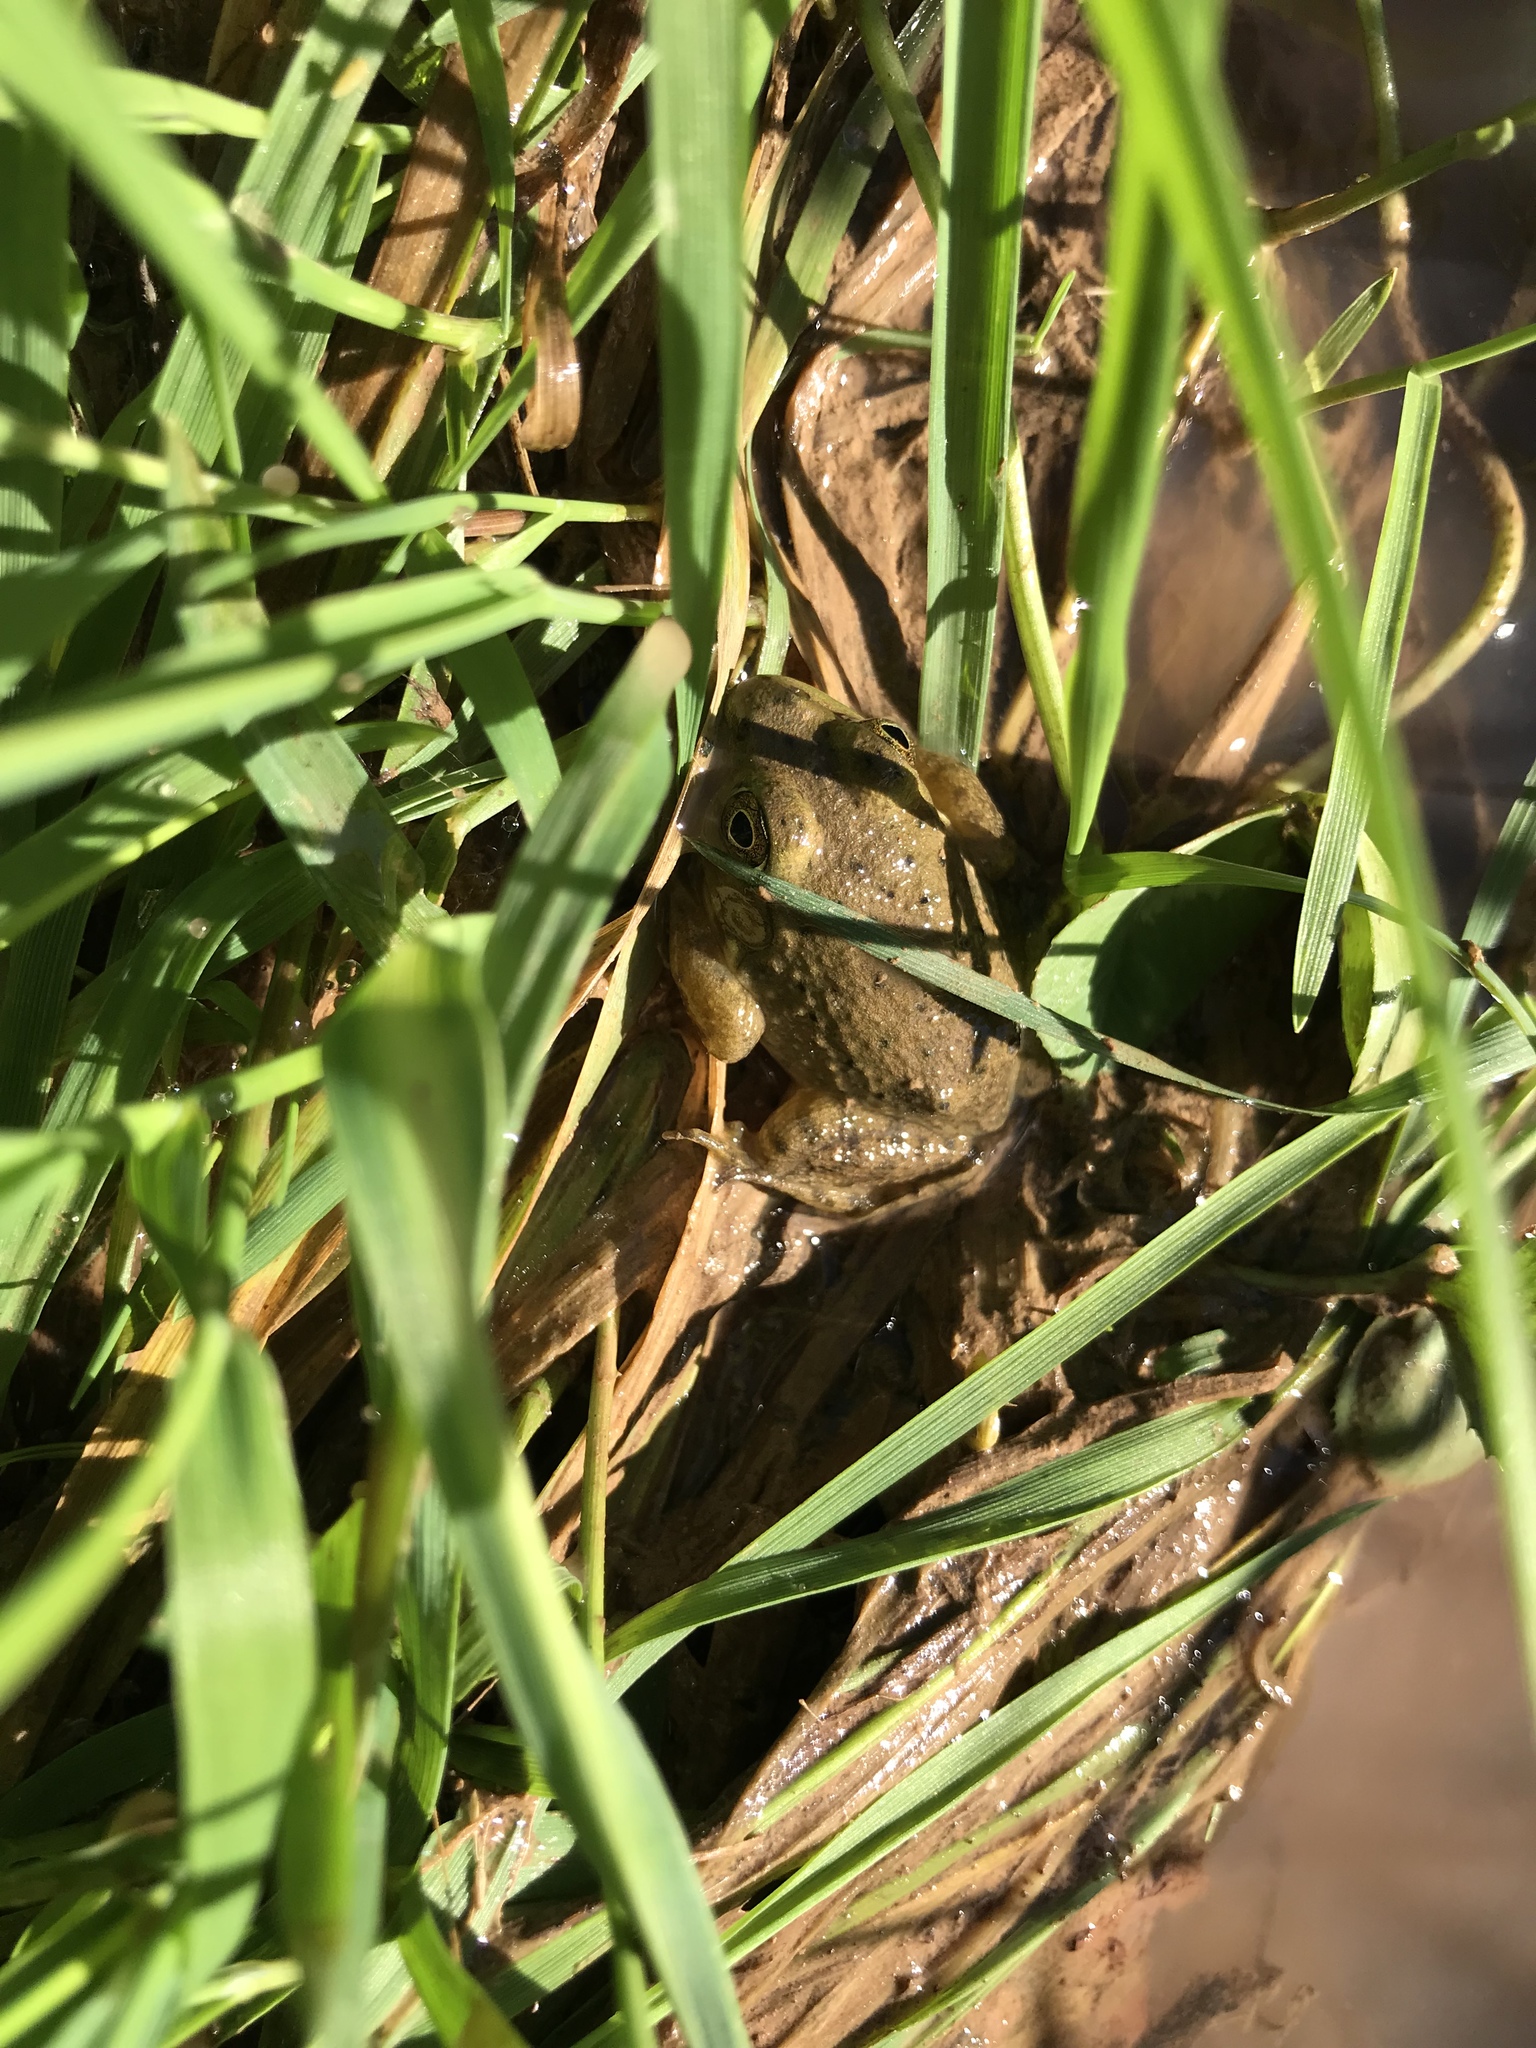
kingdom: Animalia
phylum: Chordata
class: Amphibia
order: Anura
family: Ranidae
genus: Lithobates
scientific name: Lithobates catesbeianus
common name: American bullfrog
